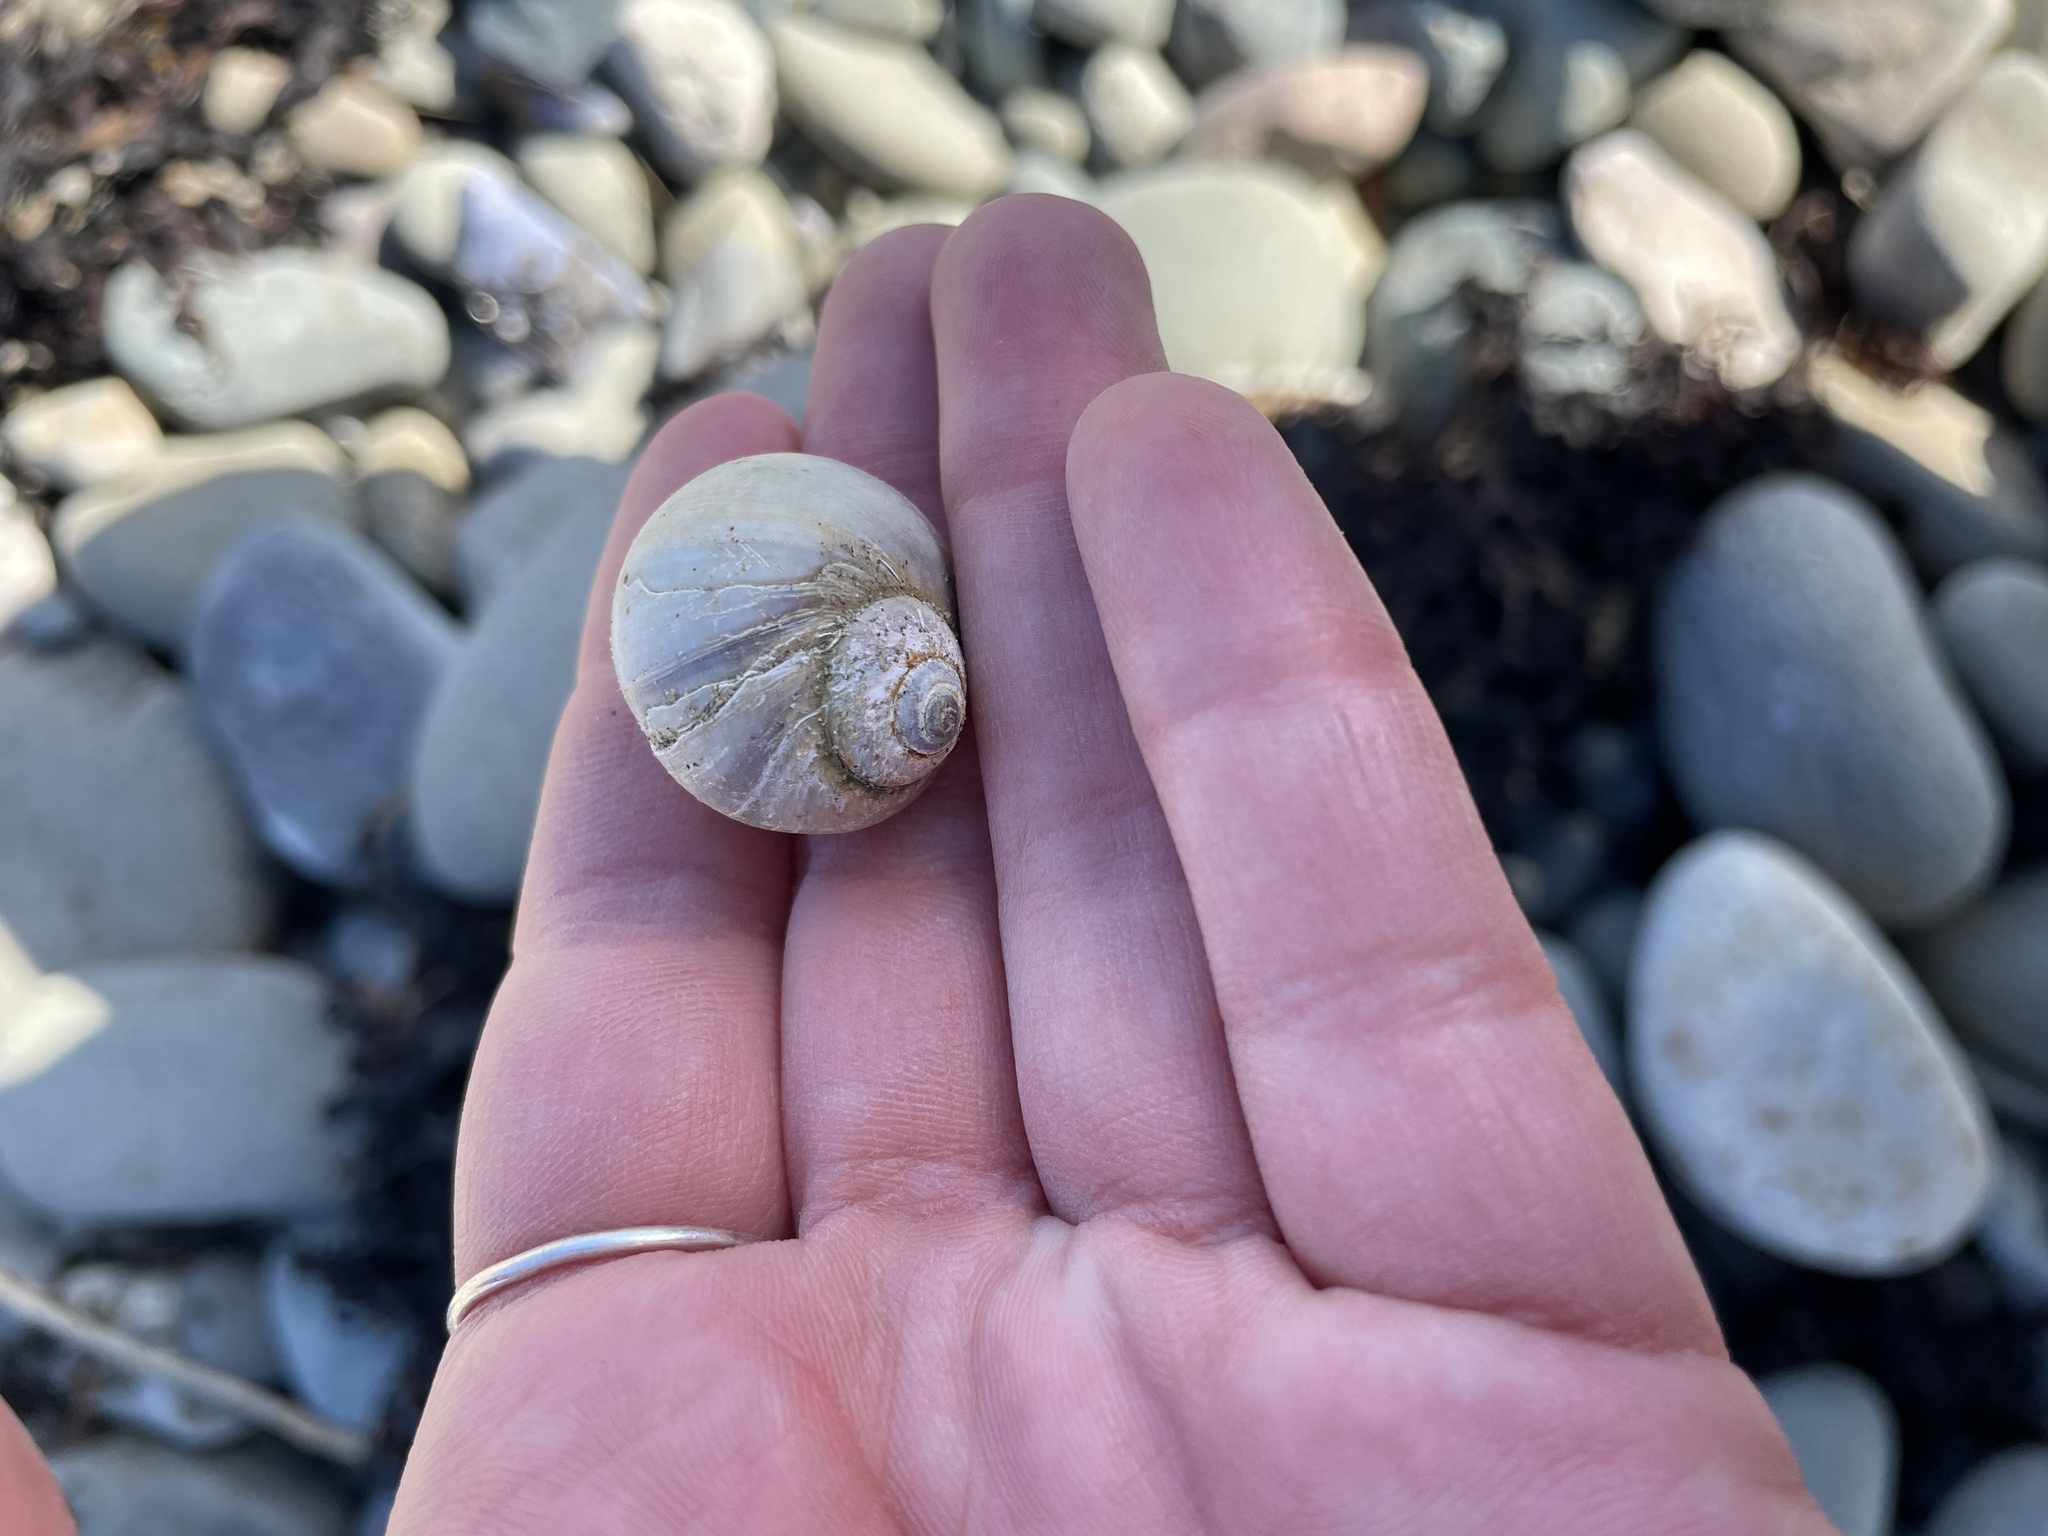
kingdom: Animalia
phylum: Mollusca
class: Gastropoda
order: Littorinimorpha
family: Naticidae
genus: Euspira
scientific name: Euspira heros
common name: Common northern moonsnail
